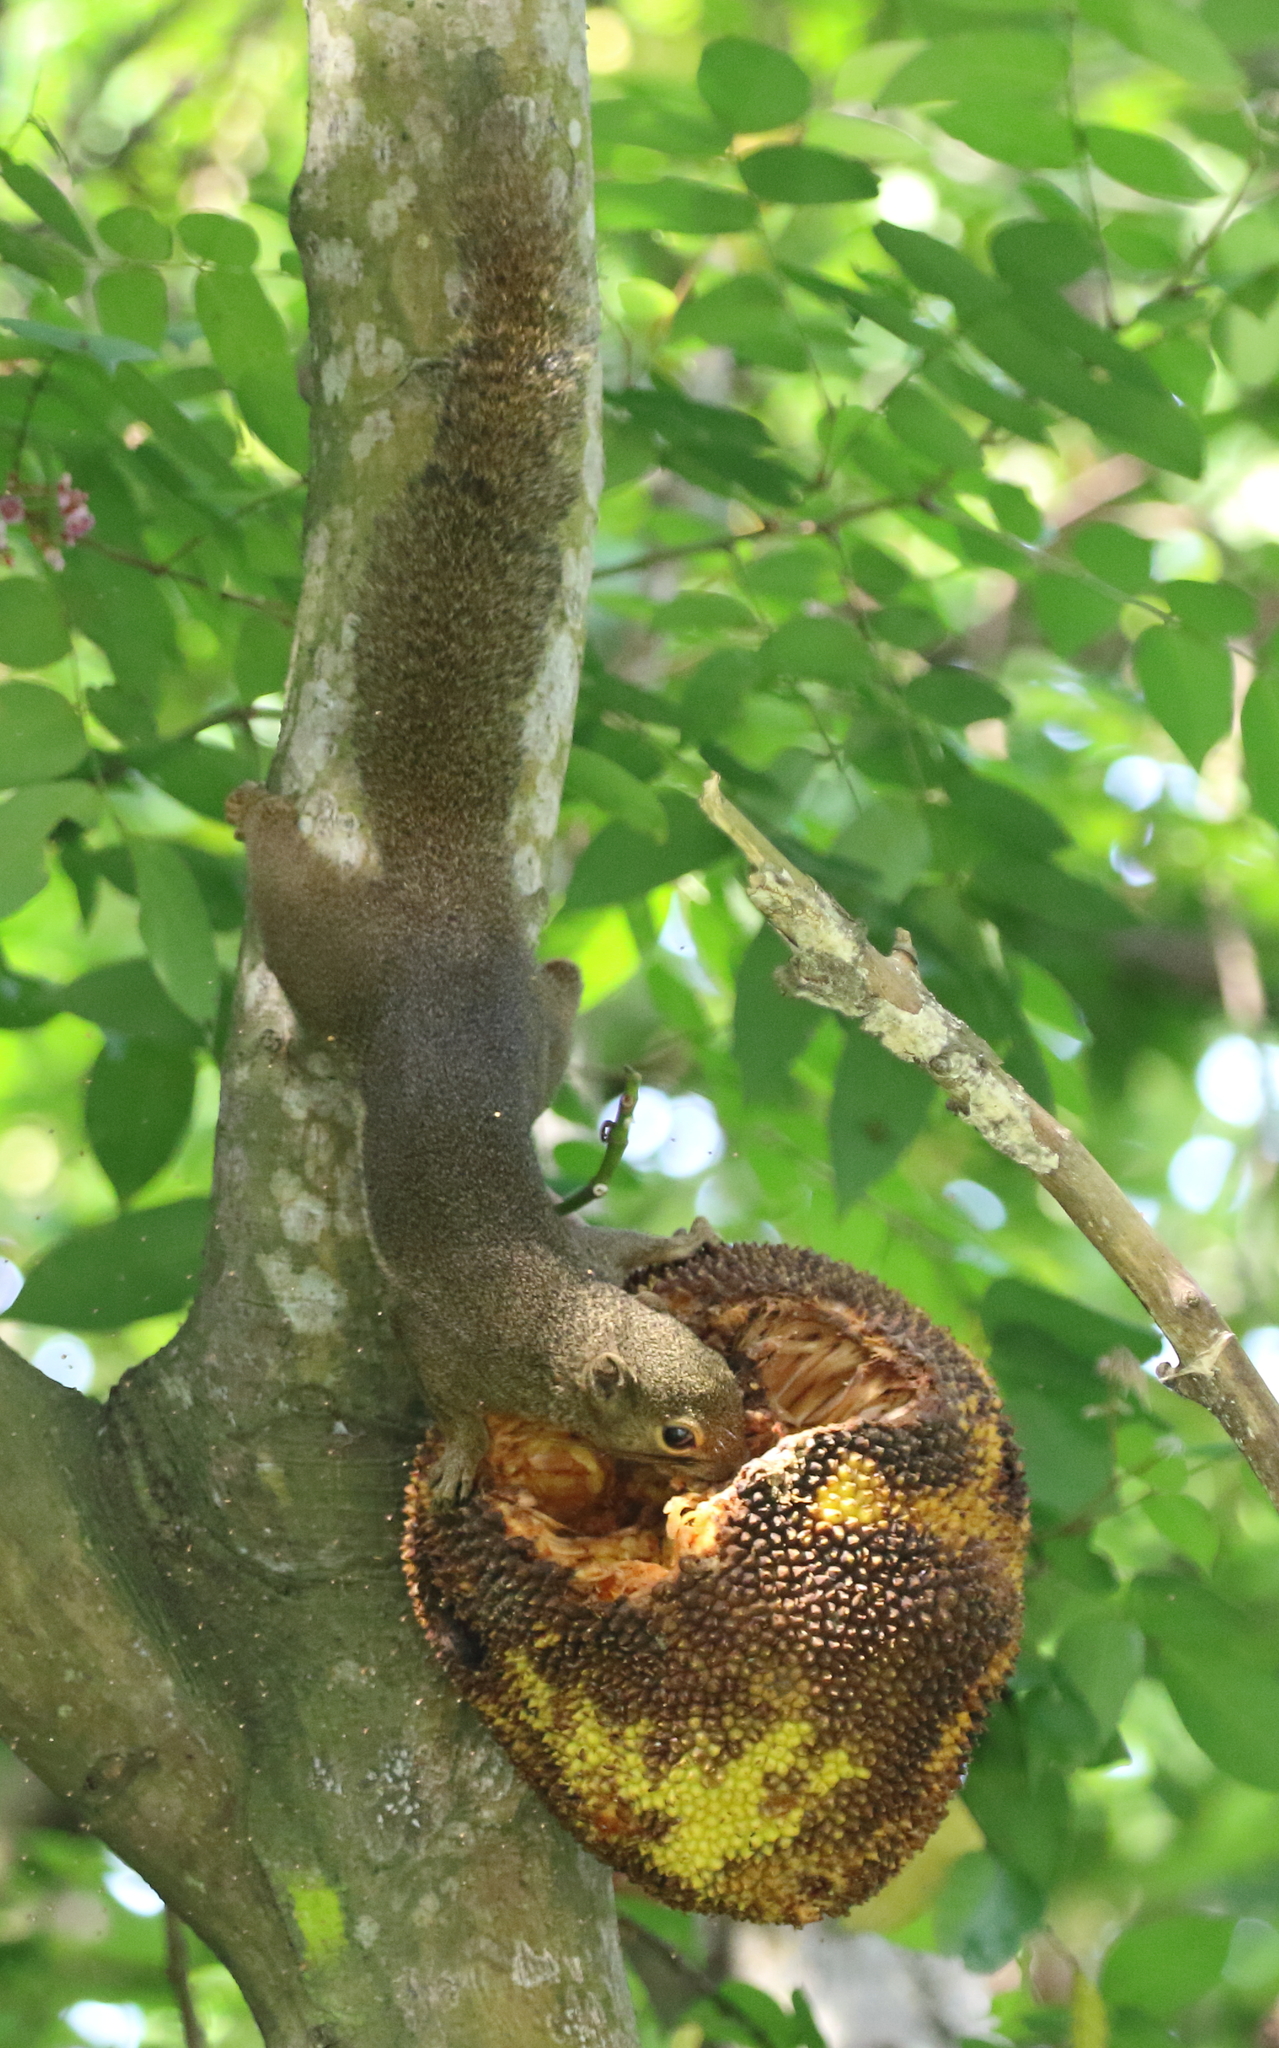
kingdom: Animalia
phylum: Chordata
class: Mammalia
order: Rodentia
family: Sciuridae
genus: Callosciurus
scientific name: Callosciurus notatus
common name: Plantain squirrel
